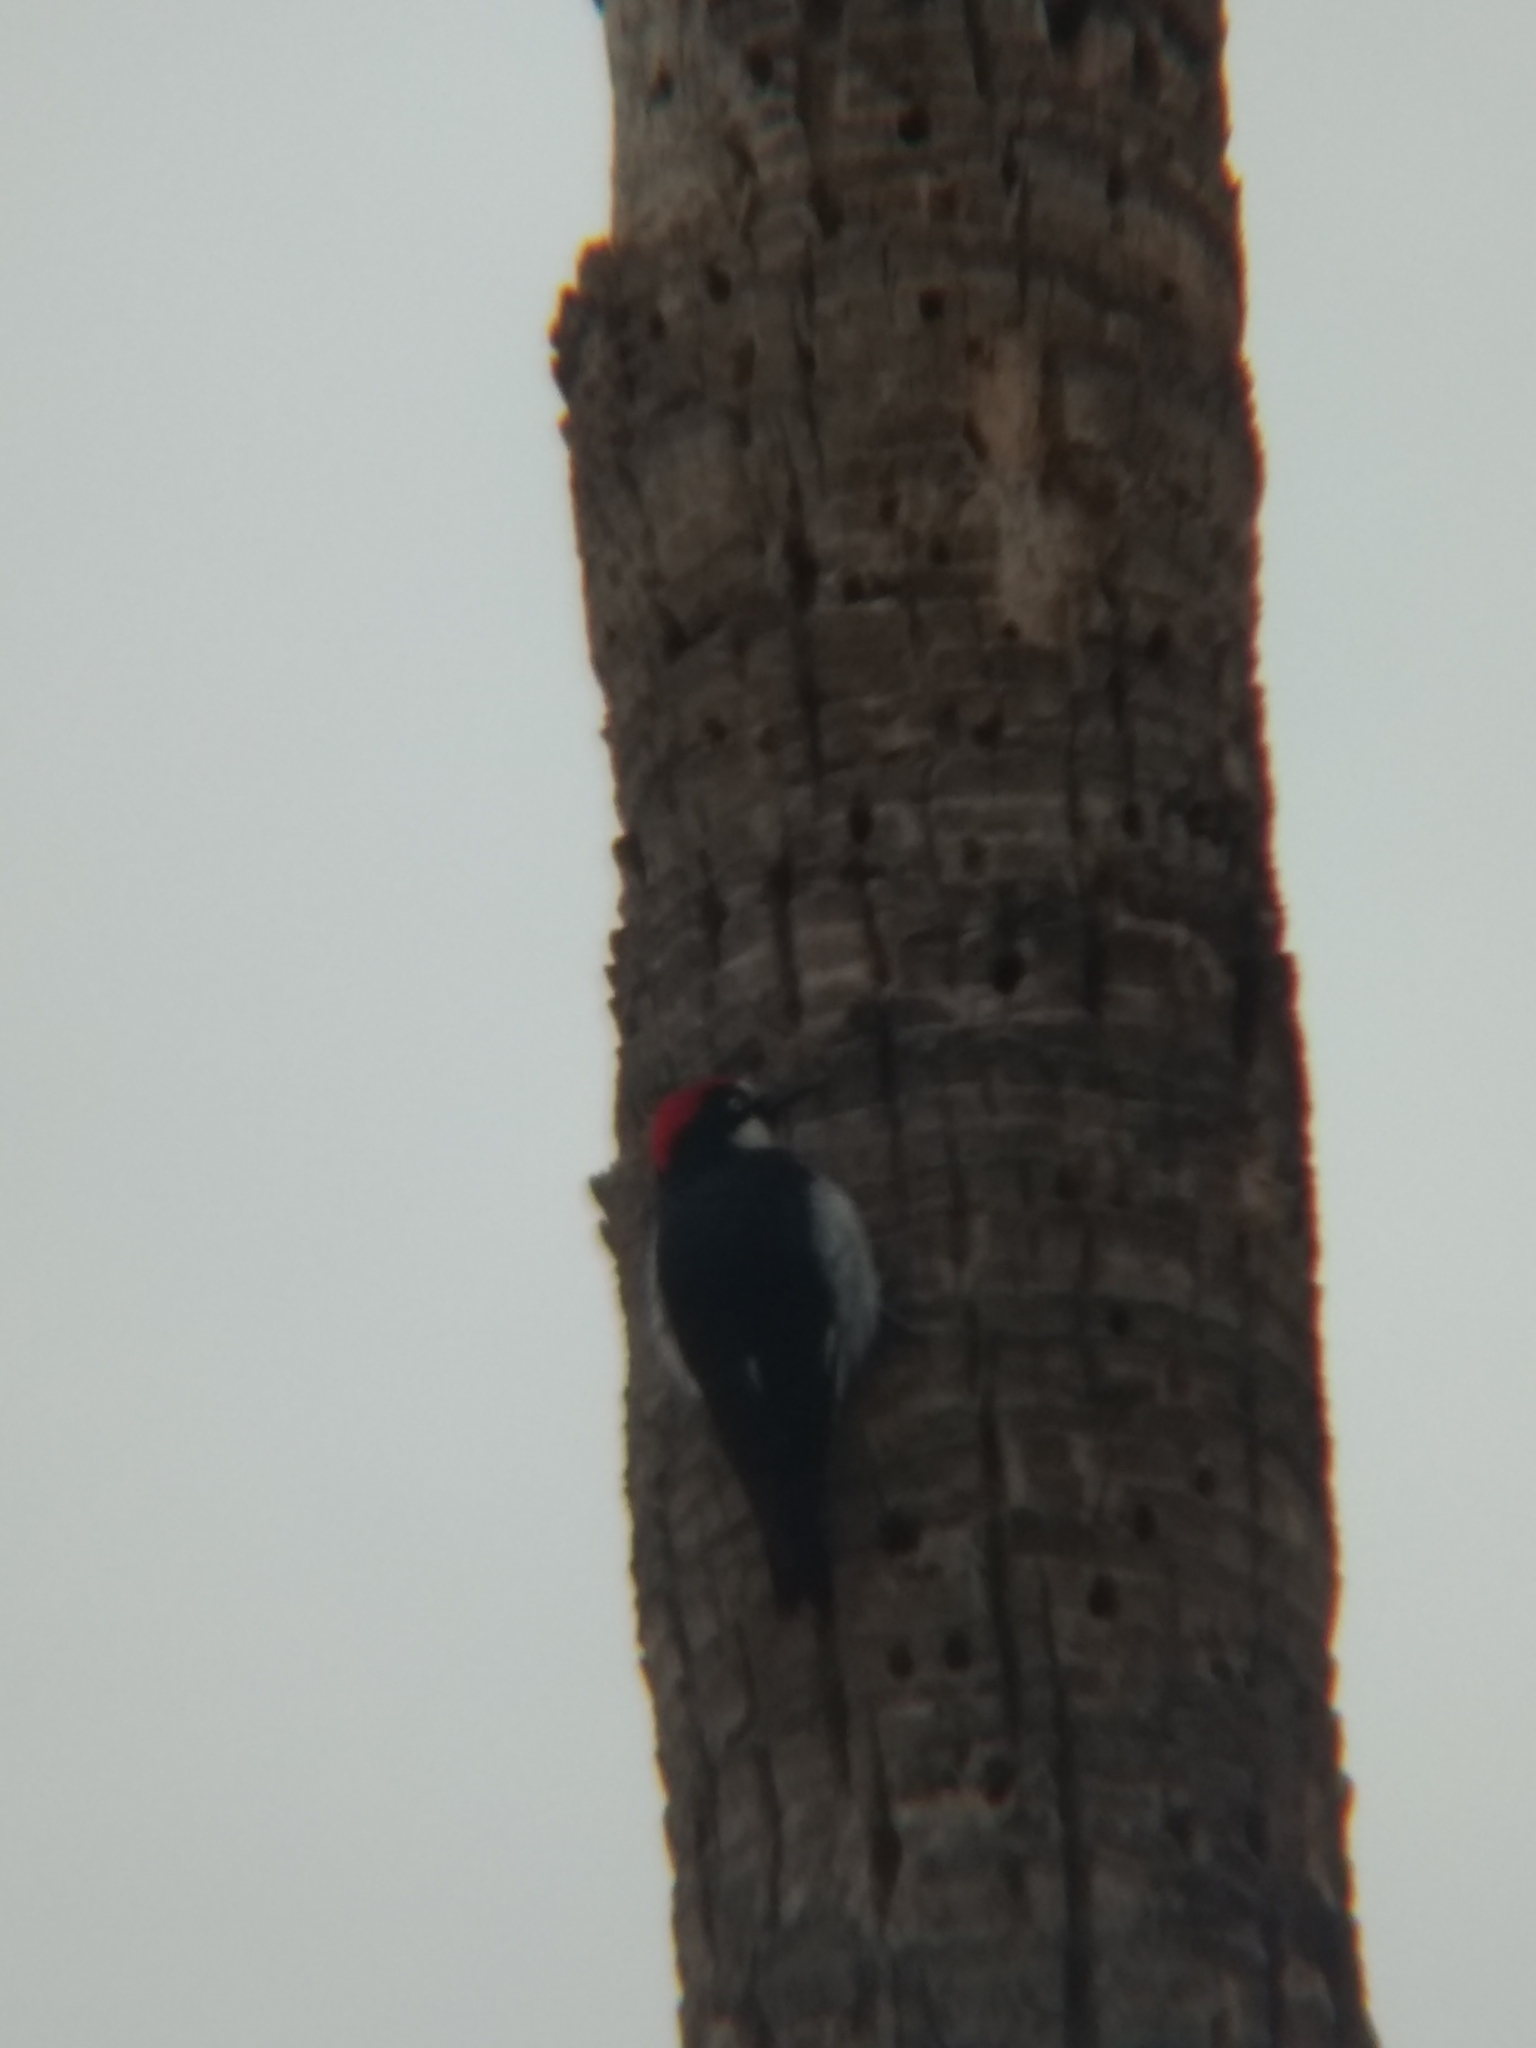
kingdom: Animalia
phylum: Chordata
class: Aves
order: Piciformes
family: Picidae
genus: Melanerpes
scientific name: Melanerpes formicivorus
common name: Acorn woodpecker
